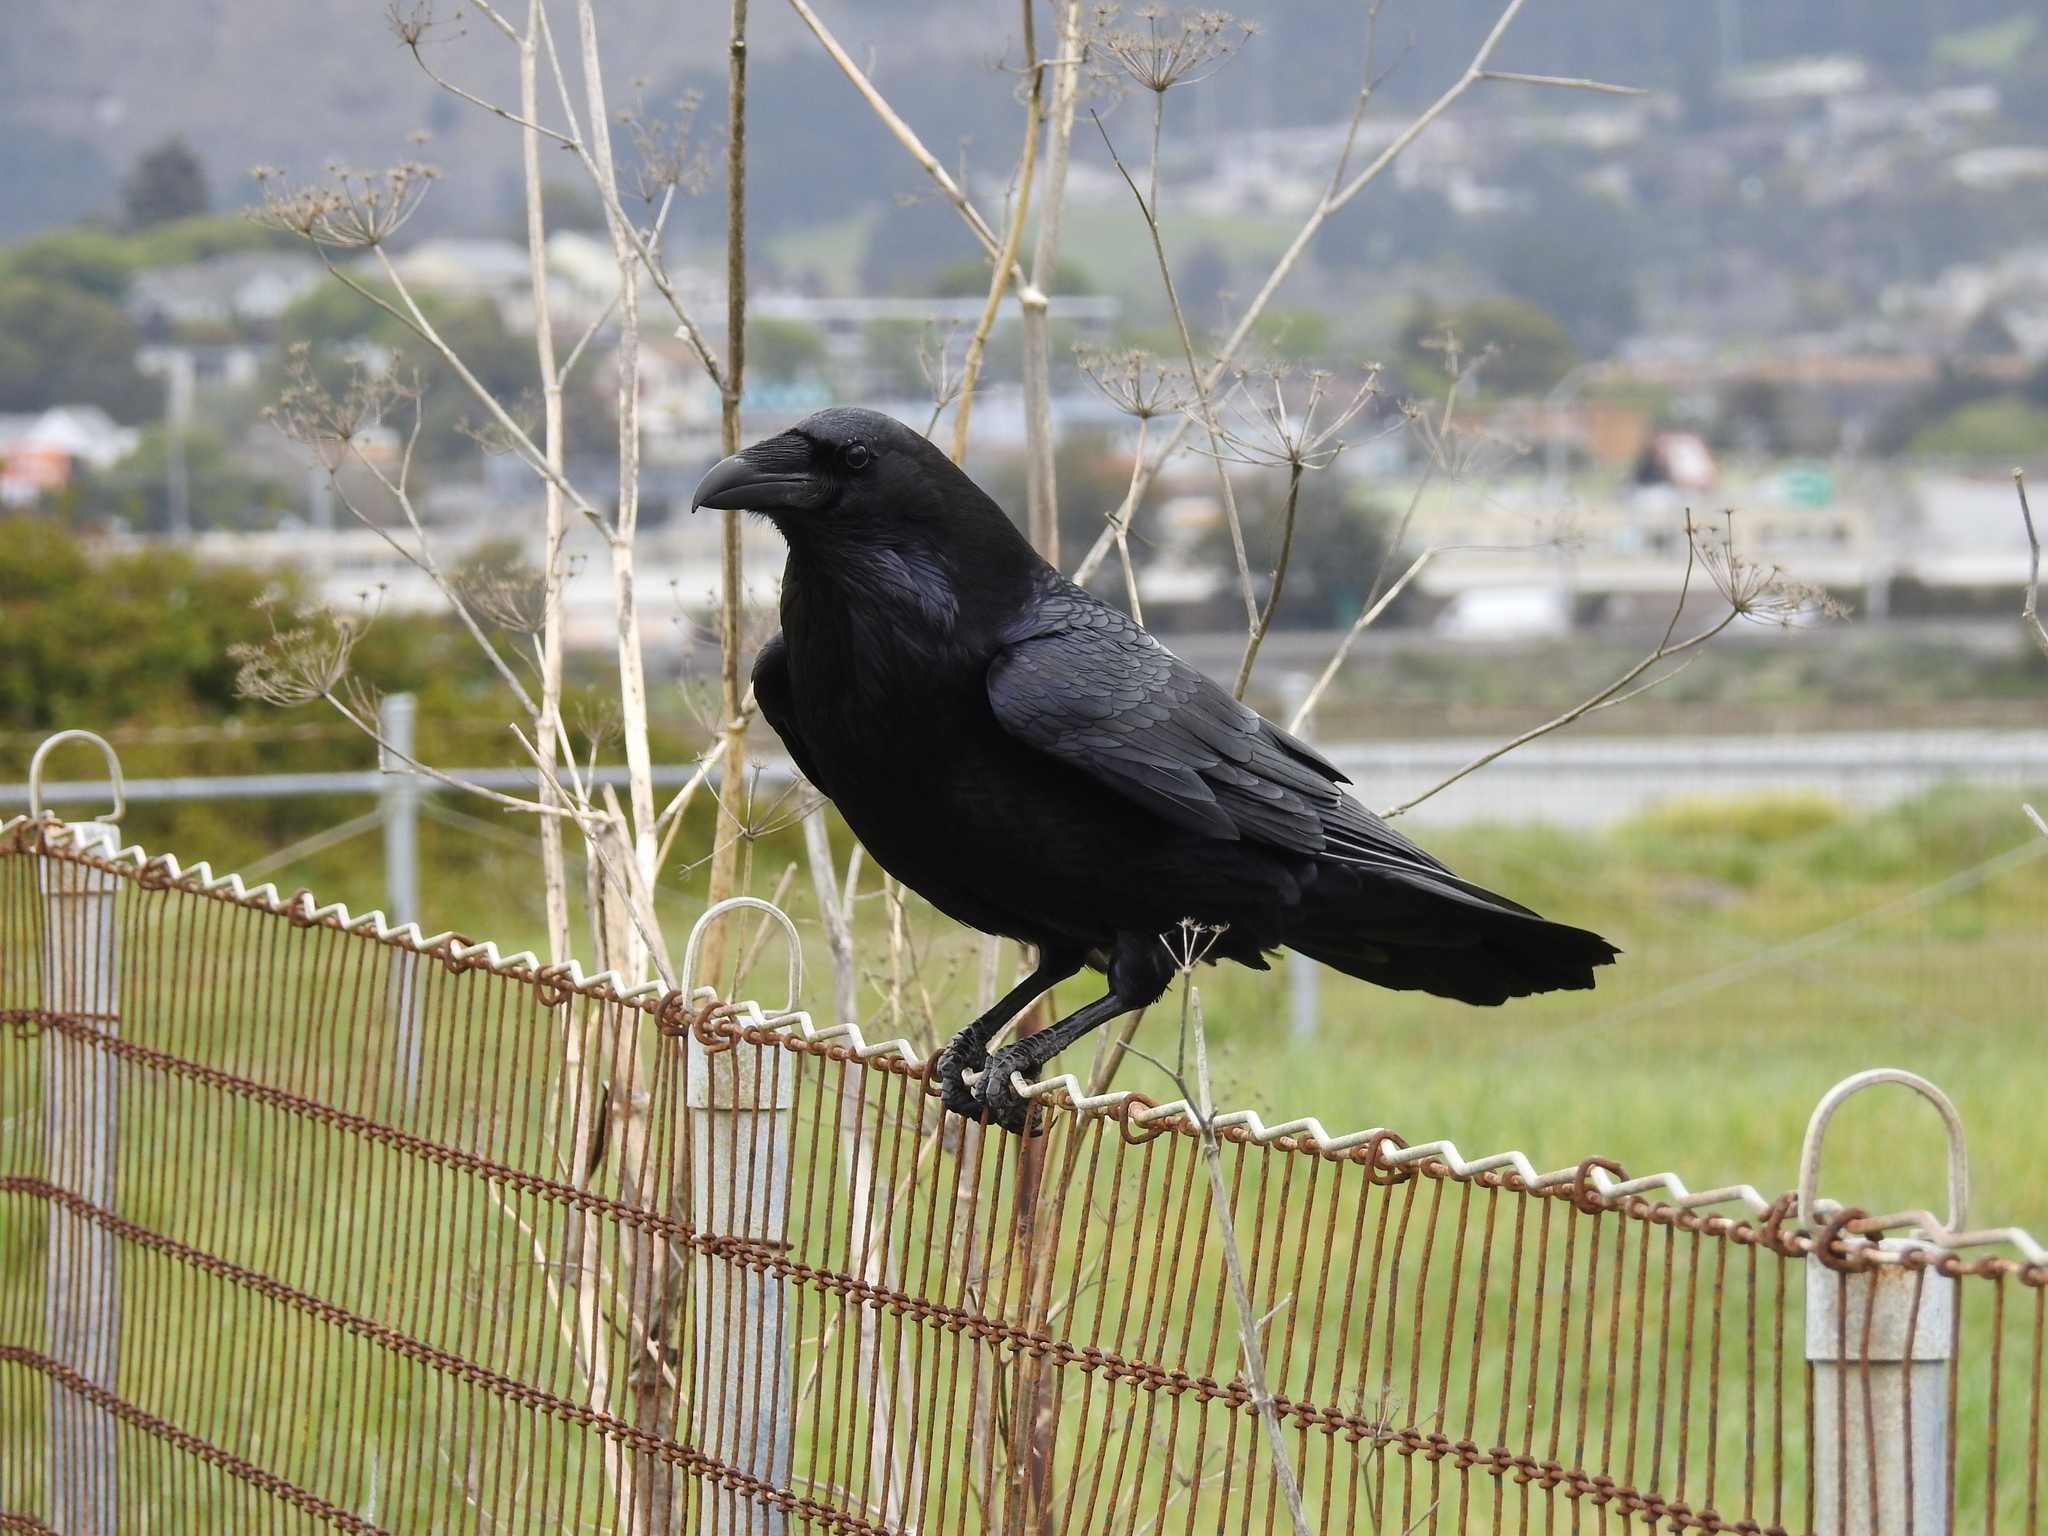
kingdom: Animalia
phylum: Chordata
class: Aves
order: Passeriformes
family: Corvidae
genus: Corvus
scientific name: Corvus corax
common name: Common raven
